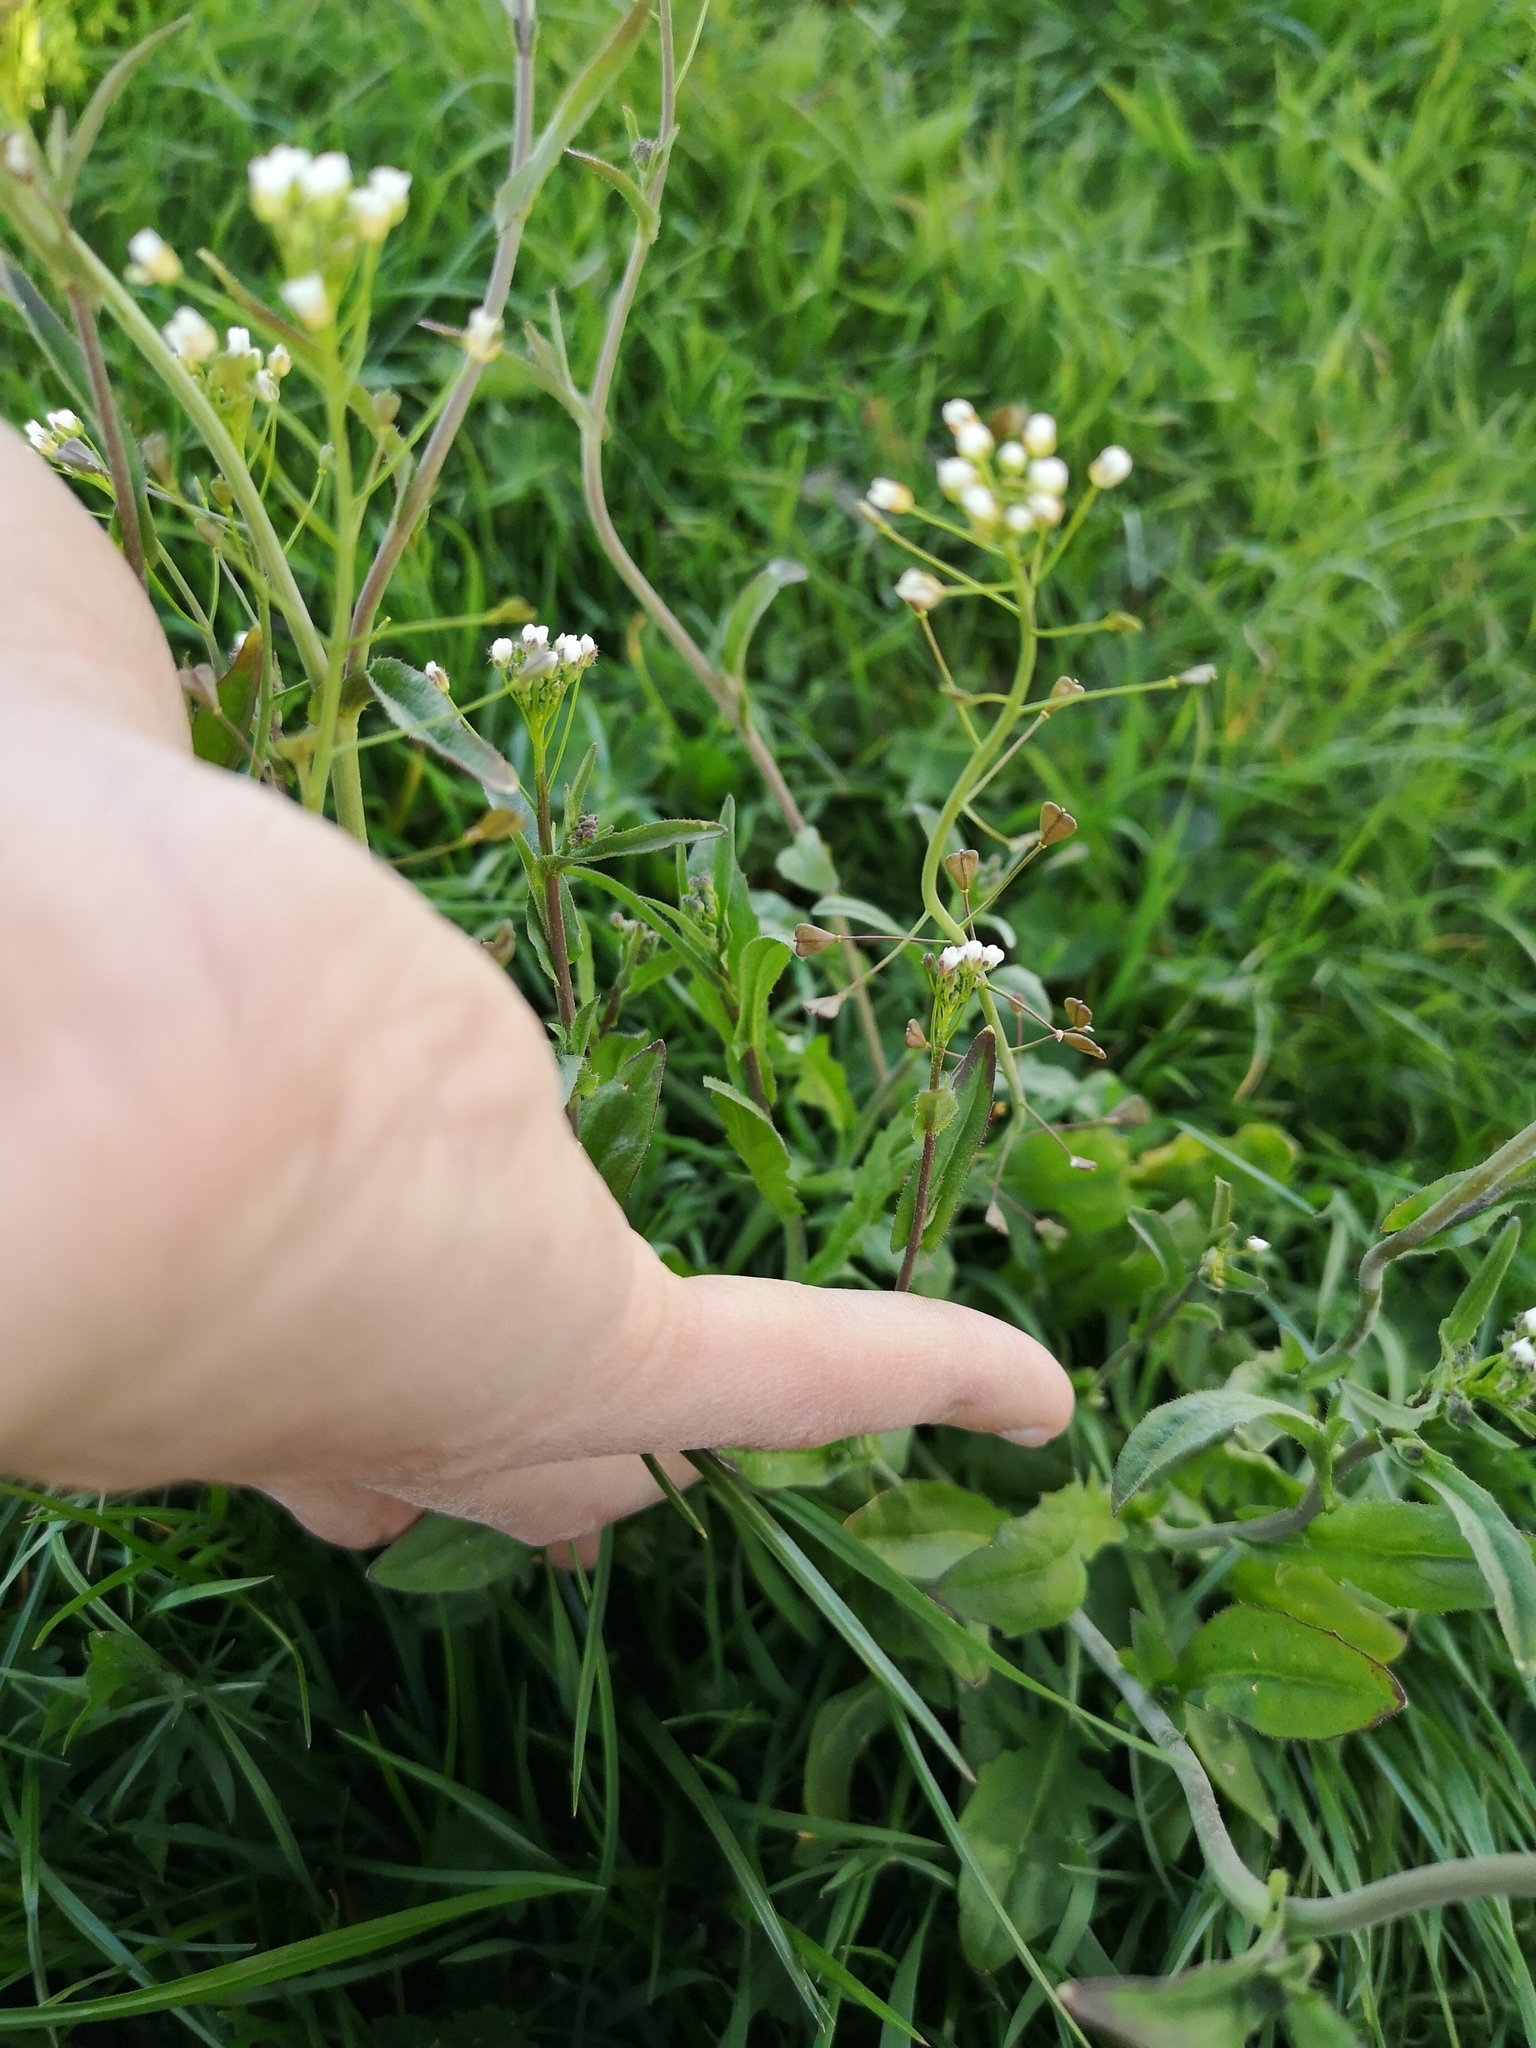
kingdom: Plantae
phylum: Tracheophyta
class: Magnoliopsida
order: Brassicales
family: Brassicaceae
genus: Capsella
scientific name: Capsella bursa-pastoris
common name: Shepherd's purse
